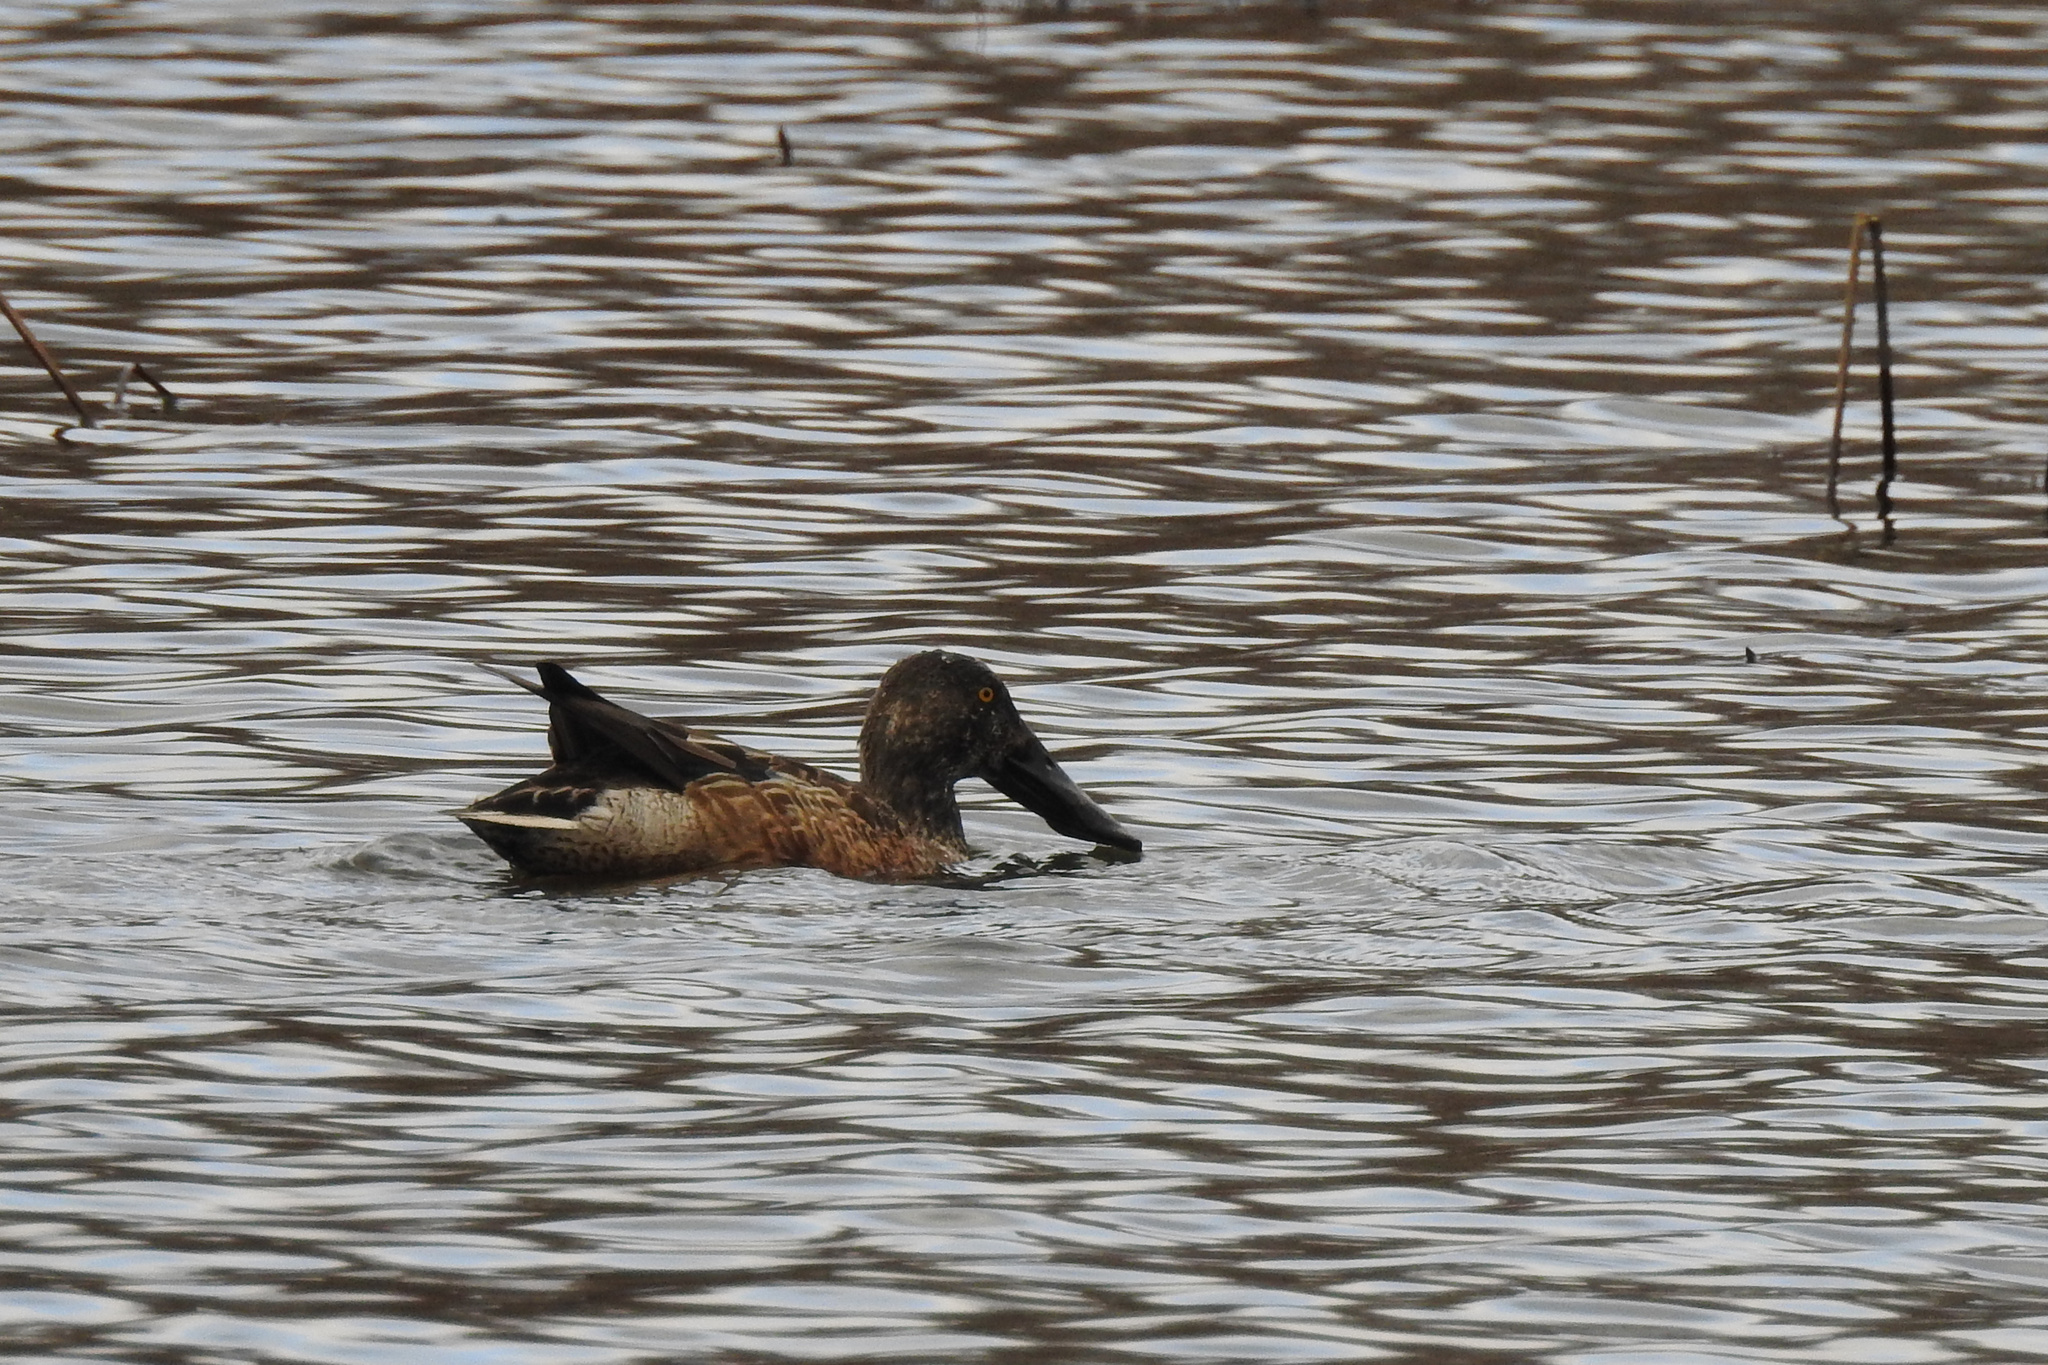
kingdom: Animalia
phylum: Chordata
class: Aves
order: Anseriformes
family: Anatidae
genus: Spatula
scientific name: Spatula clypeata
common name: Northern shoveler
